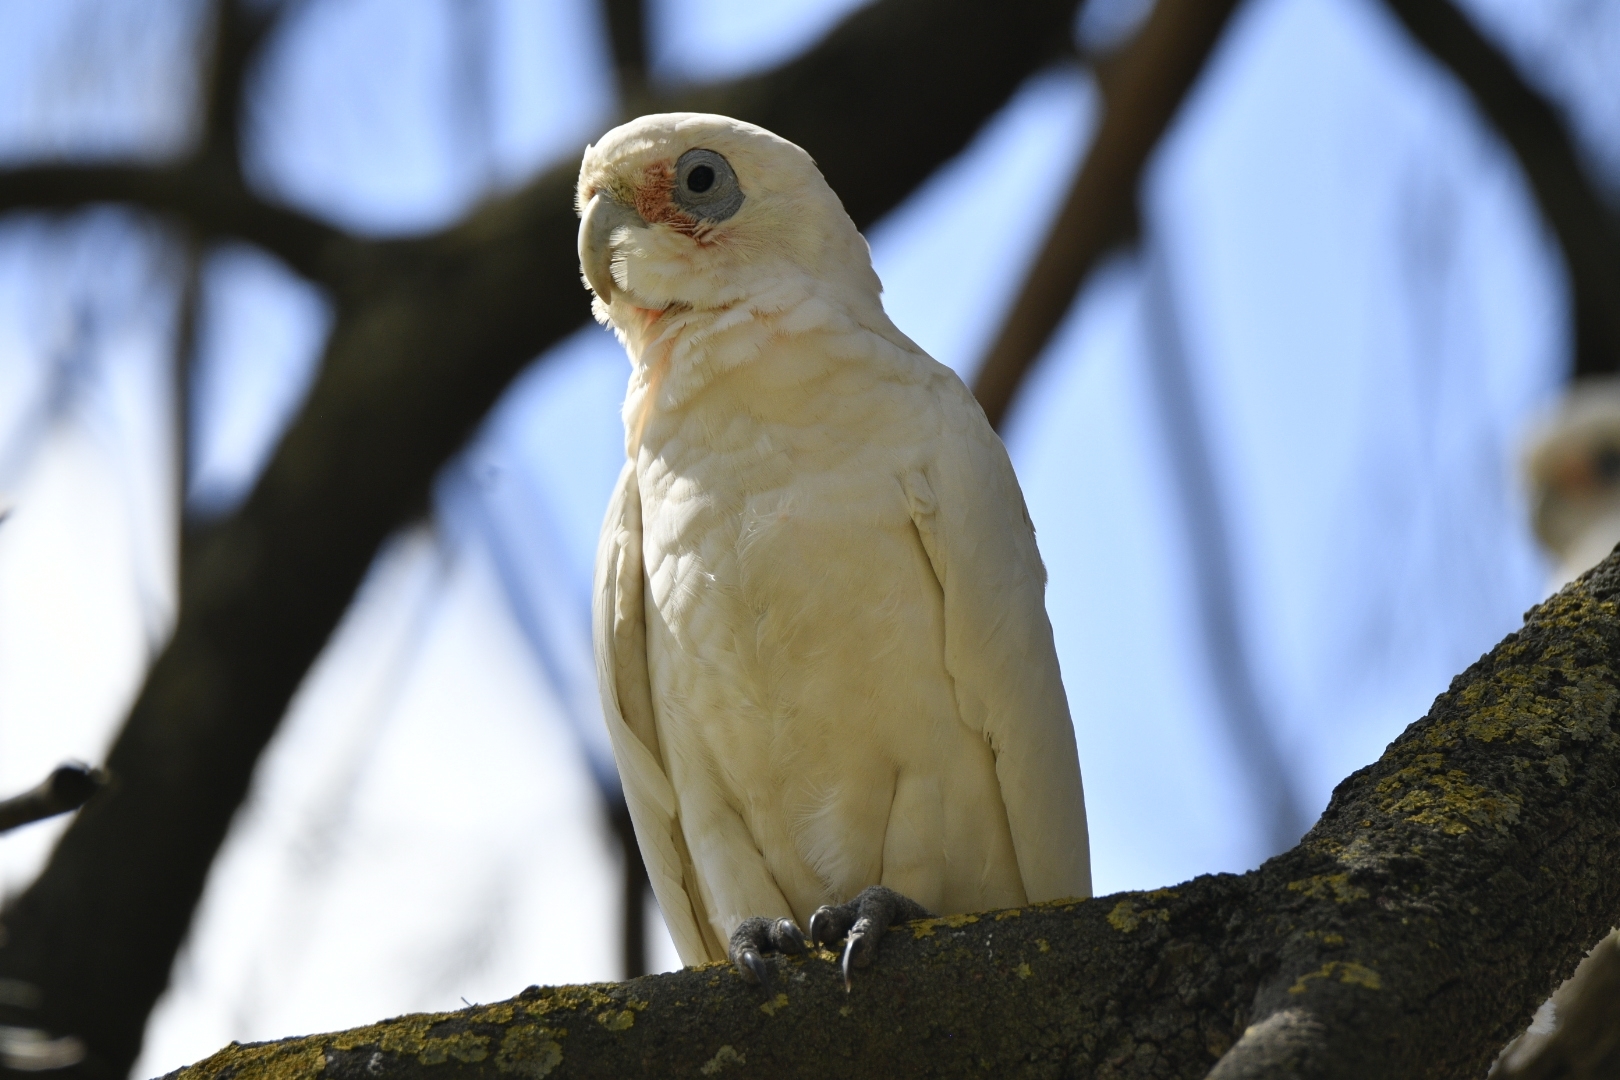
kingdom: Animalia
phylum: Chordata
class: Aves
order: Psittaciformes
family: Psittacidae
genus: Cacatua
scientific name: Cacatua sanguinea
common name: Little corella
